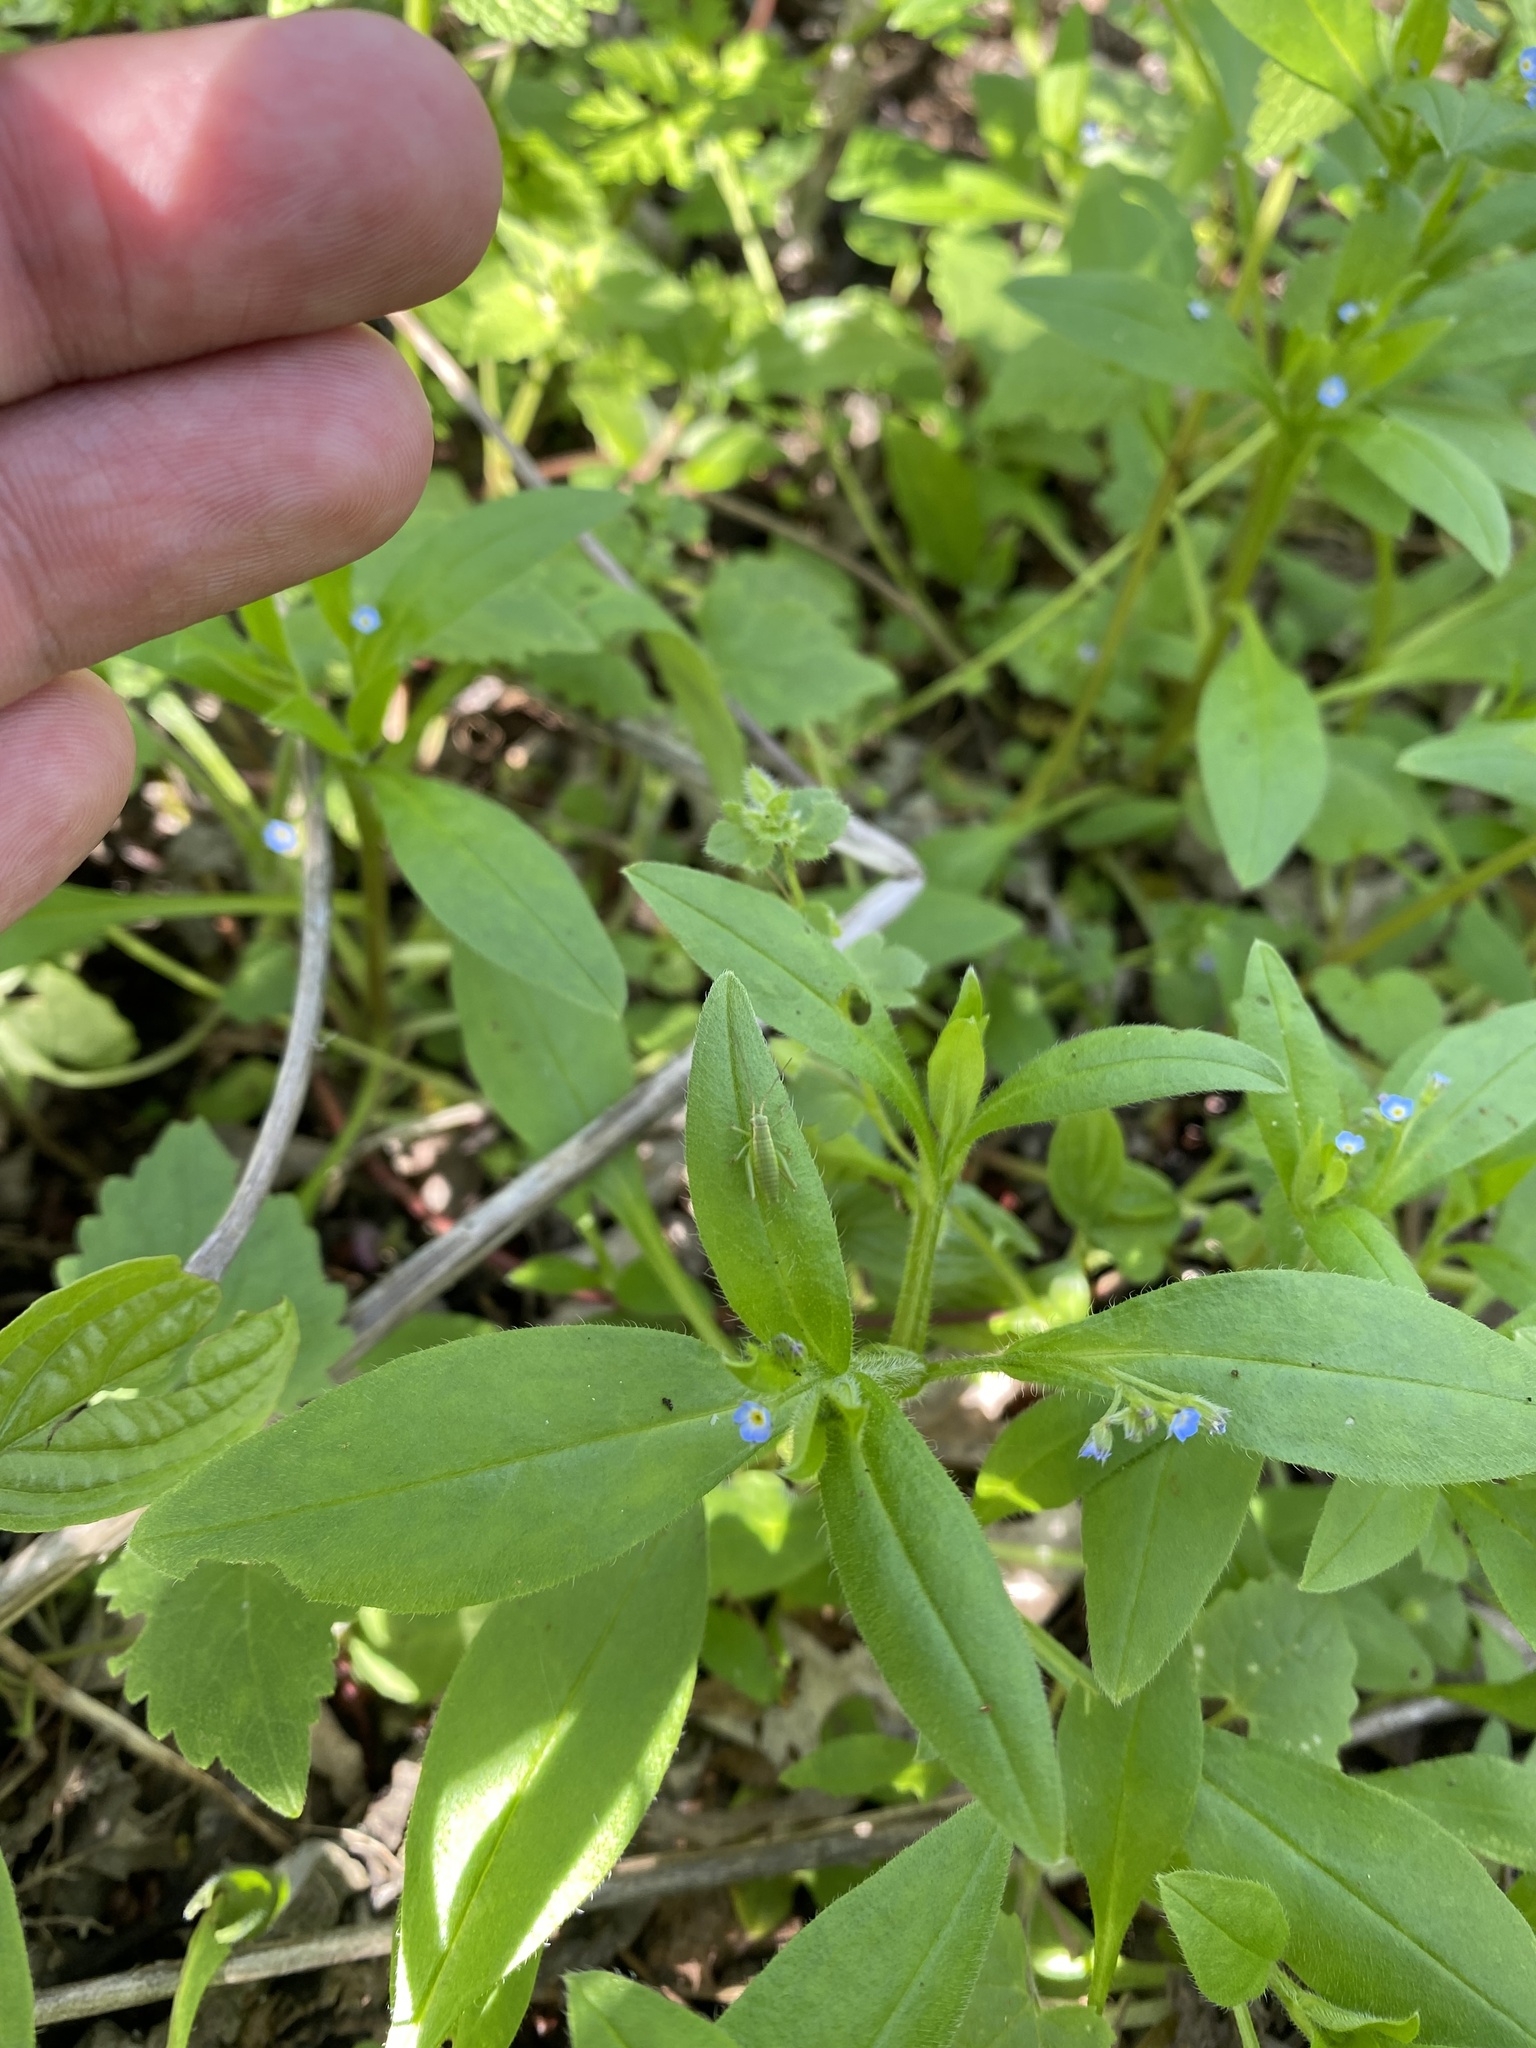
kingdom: Plantae
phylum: Tracheophyta
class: Magnoliopsida
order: Boraginales
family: Boraginaceae
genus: Myosotis
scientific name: Myosotis sparsiflora
